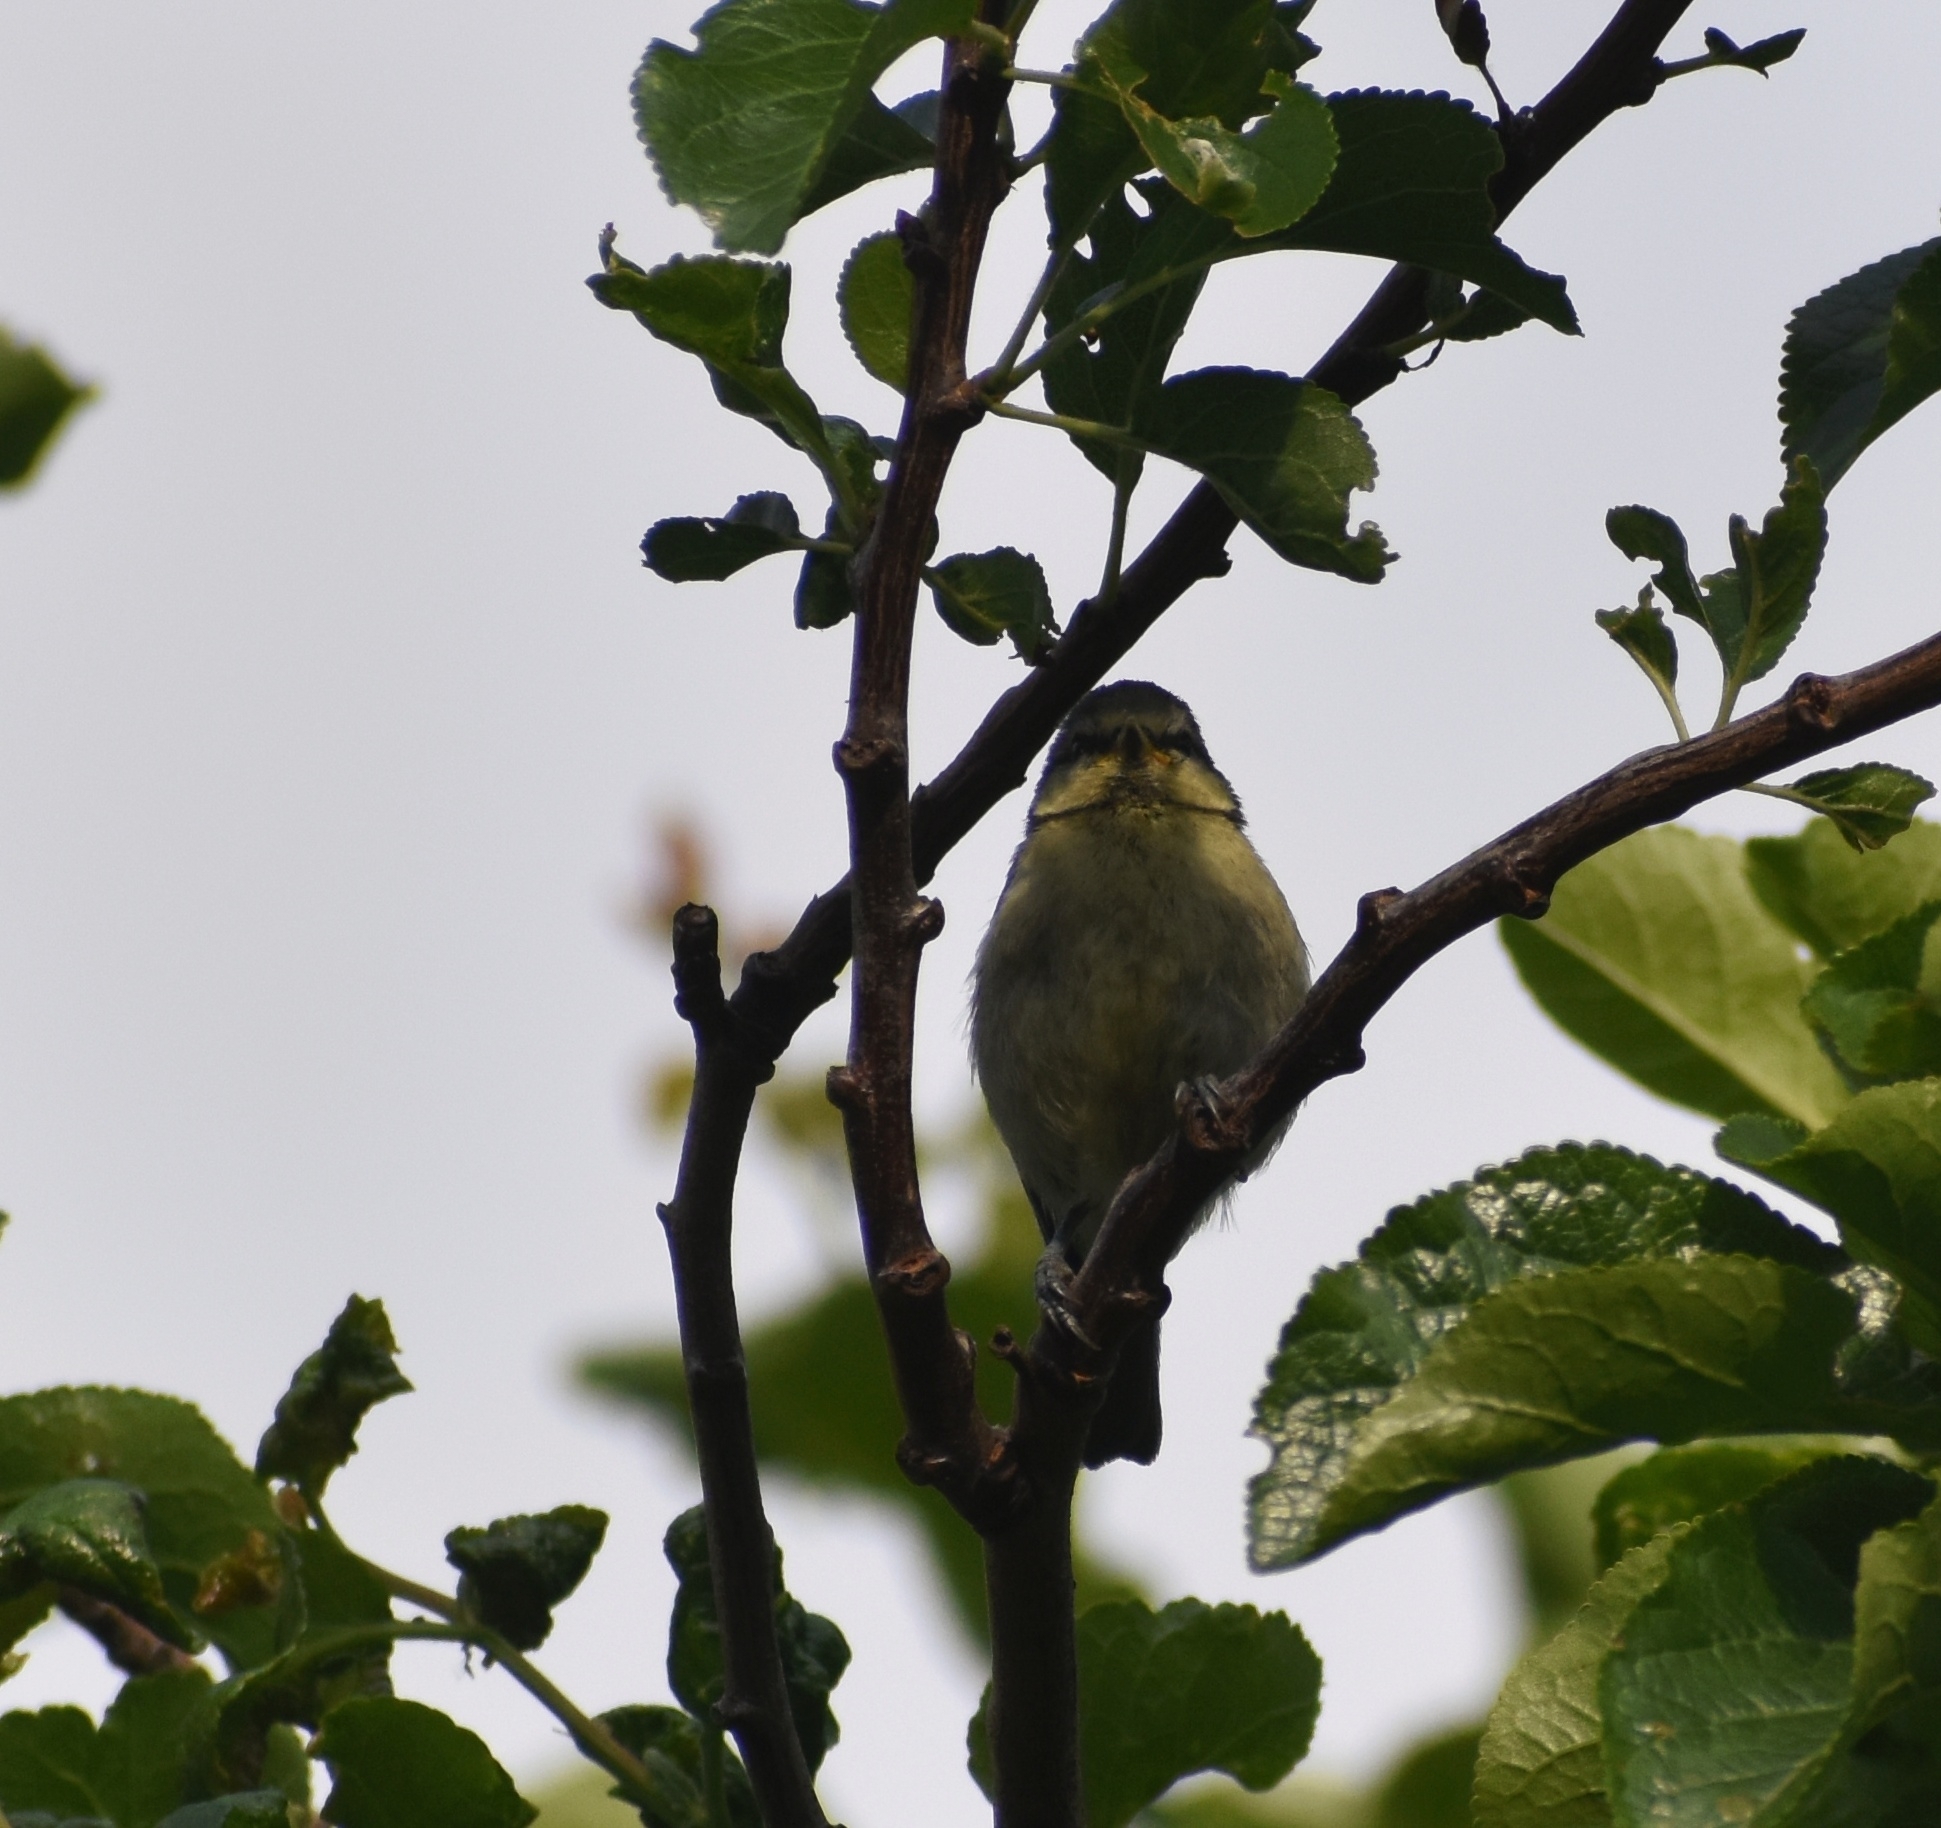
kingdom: Animalia
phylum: Chordata
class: Aves
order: Passeriformes
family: Paridae
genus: Cyanistes
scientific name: Cyanistes caeruleus
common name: Eurasian blue tit
